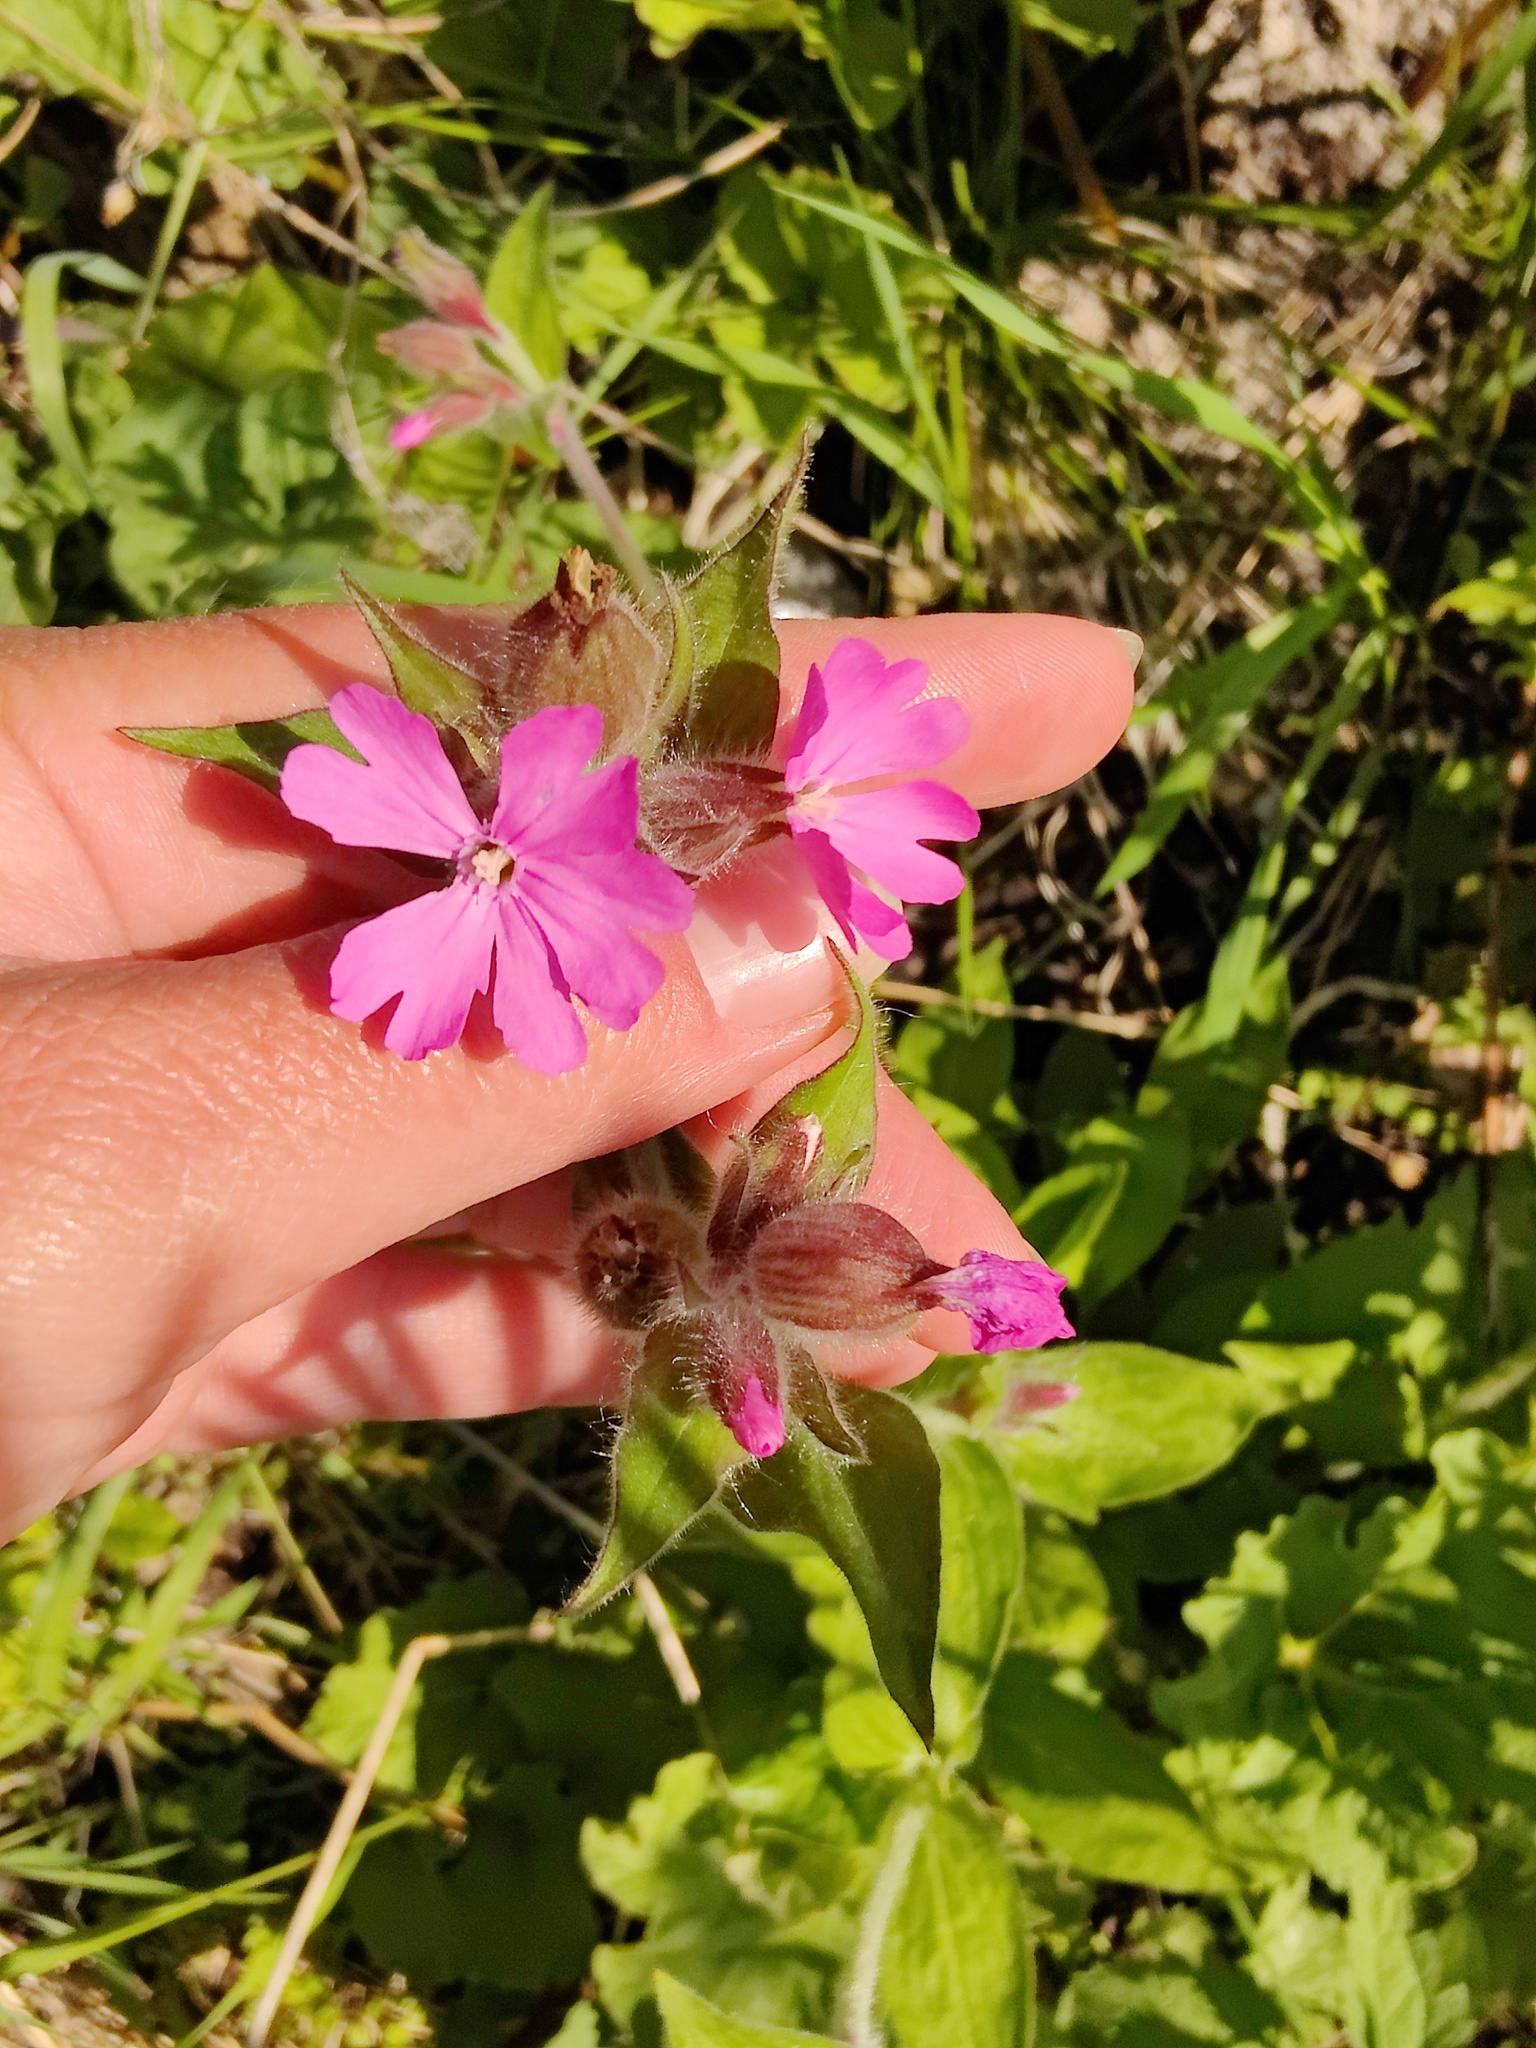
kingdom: Plantae
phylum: Tracheophyta
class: Magnoliopsida
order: Caryophyllales
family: Caryophyllaceae
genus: Silene
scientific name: Silene dioica
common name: Red campion
